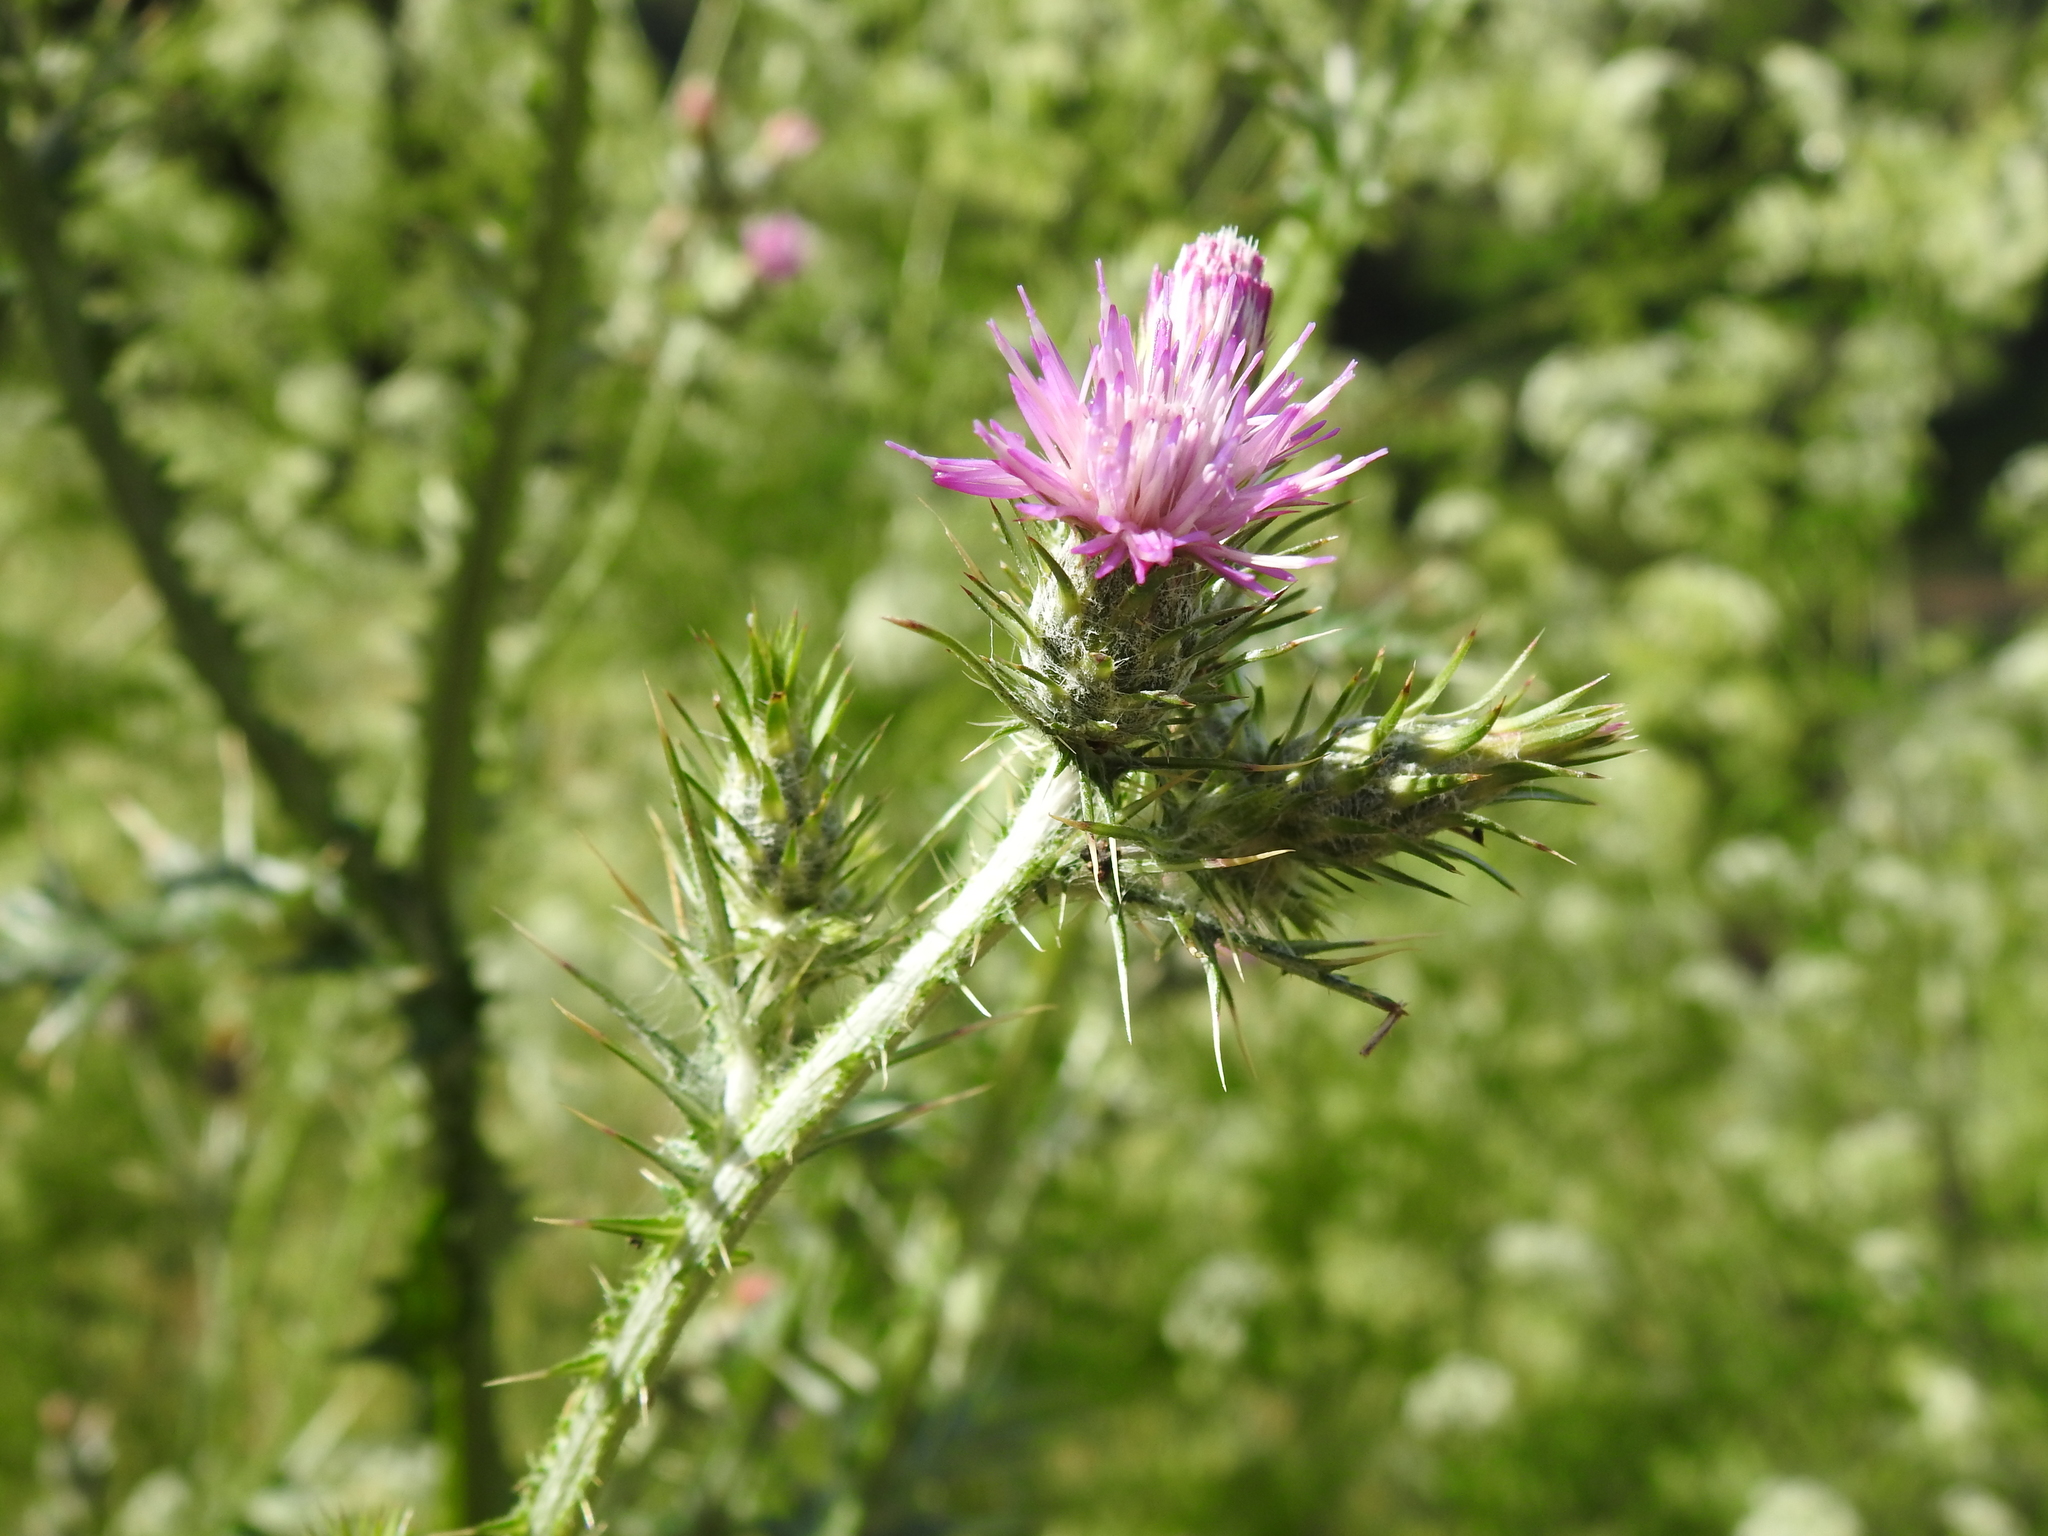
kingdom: Plantae
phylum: Tracheophyta
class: Magnoliopsida
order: Asterales
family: Asteraceae
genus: Carduus
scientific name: Carduus pycnocephalus
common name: Plymouth thistle
